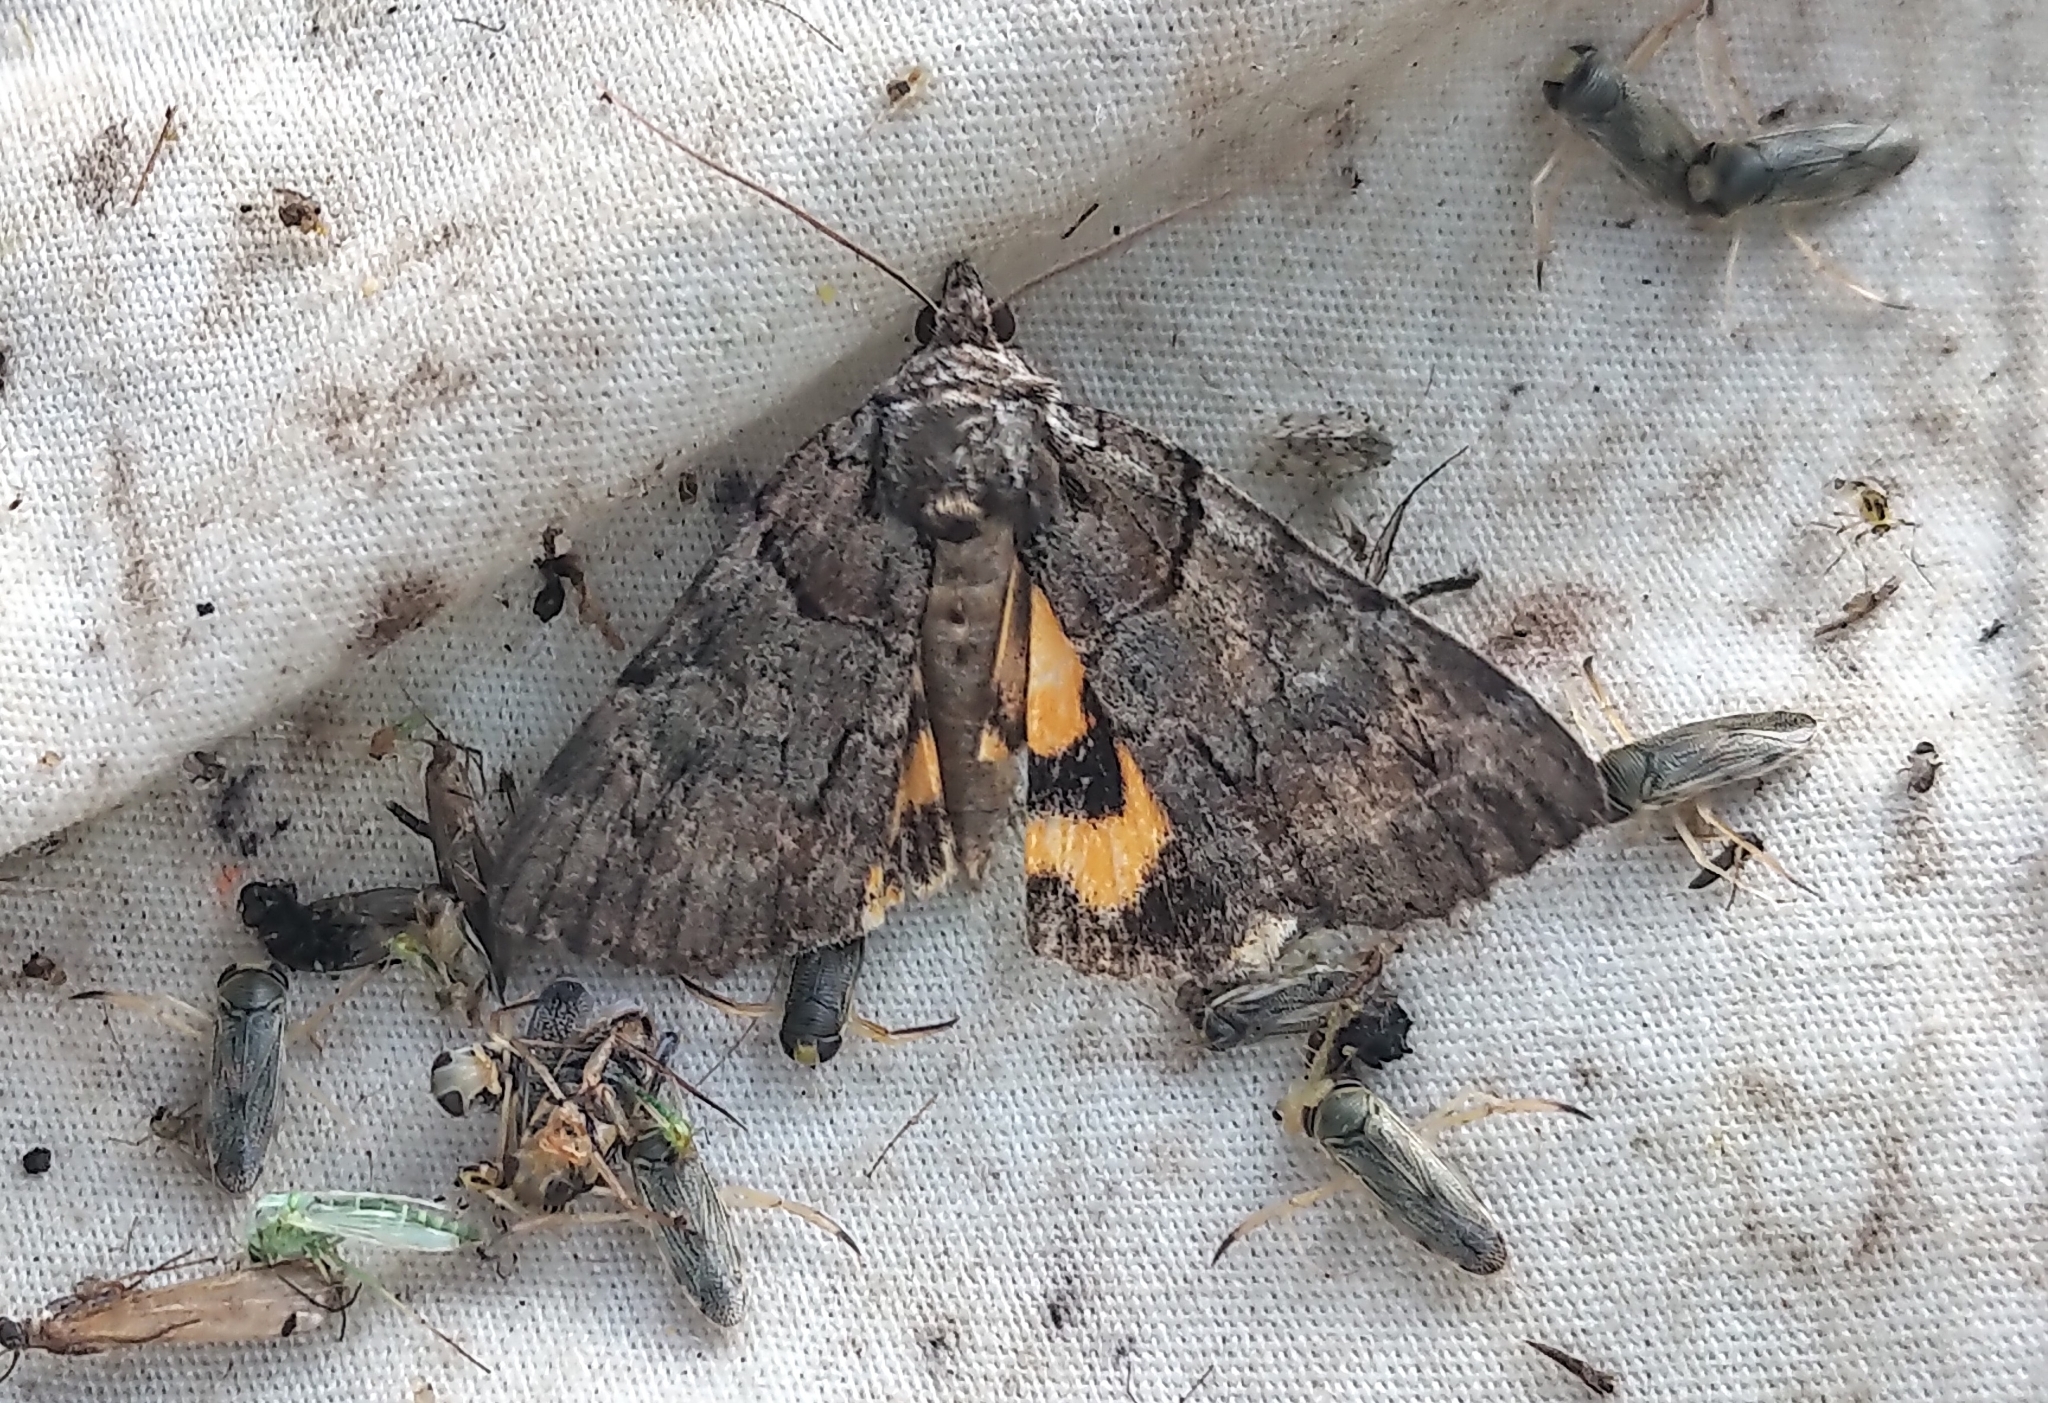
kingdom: Animalia
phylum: Arthropoda
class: Insecta
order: Lepidoptera
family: Erebidae
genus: Catocala
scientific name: Catocala praeclara
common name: Praeclara underwing
